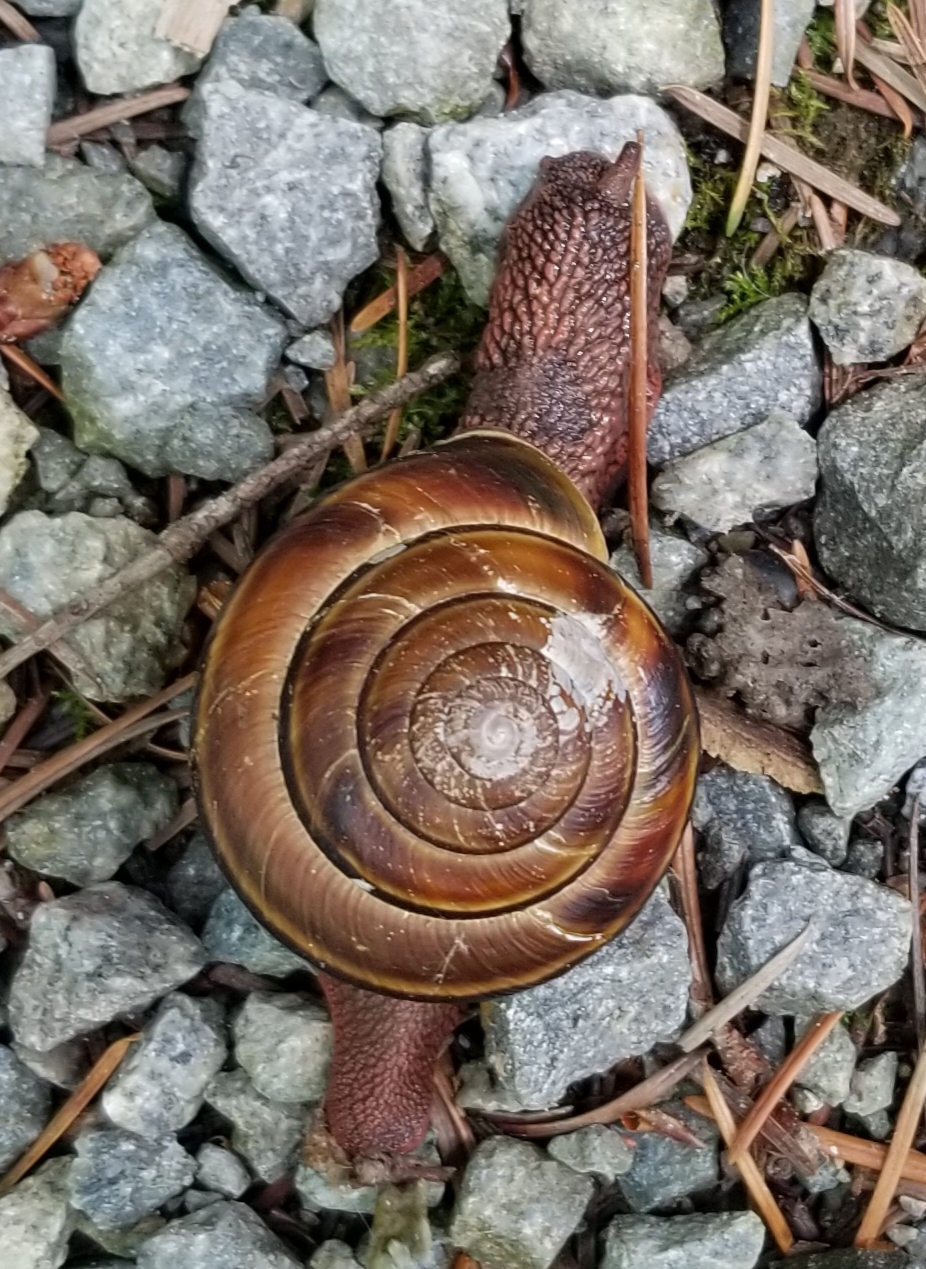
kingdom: Animalia
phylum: Mollusca
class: Gastropoda
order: Stylommatophora
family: Xanthonychidae
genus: Monadenia
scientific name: Monadenia fidelis
